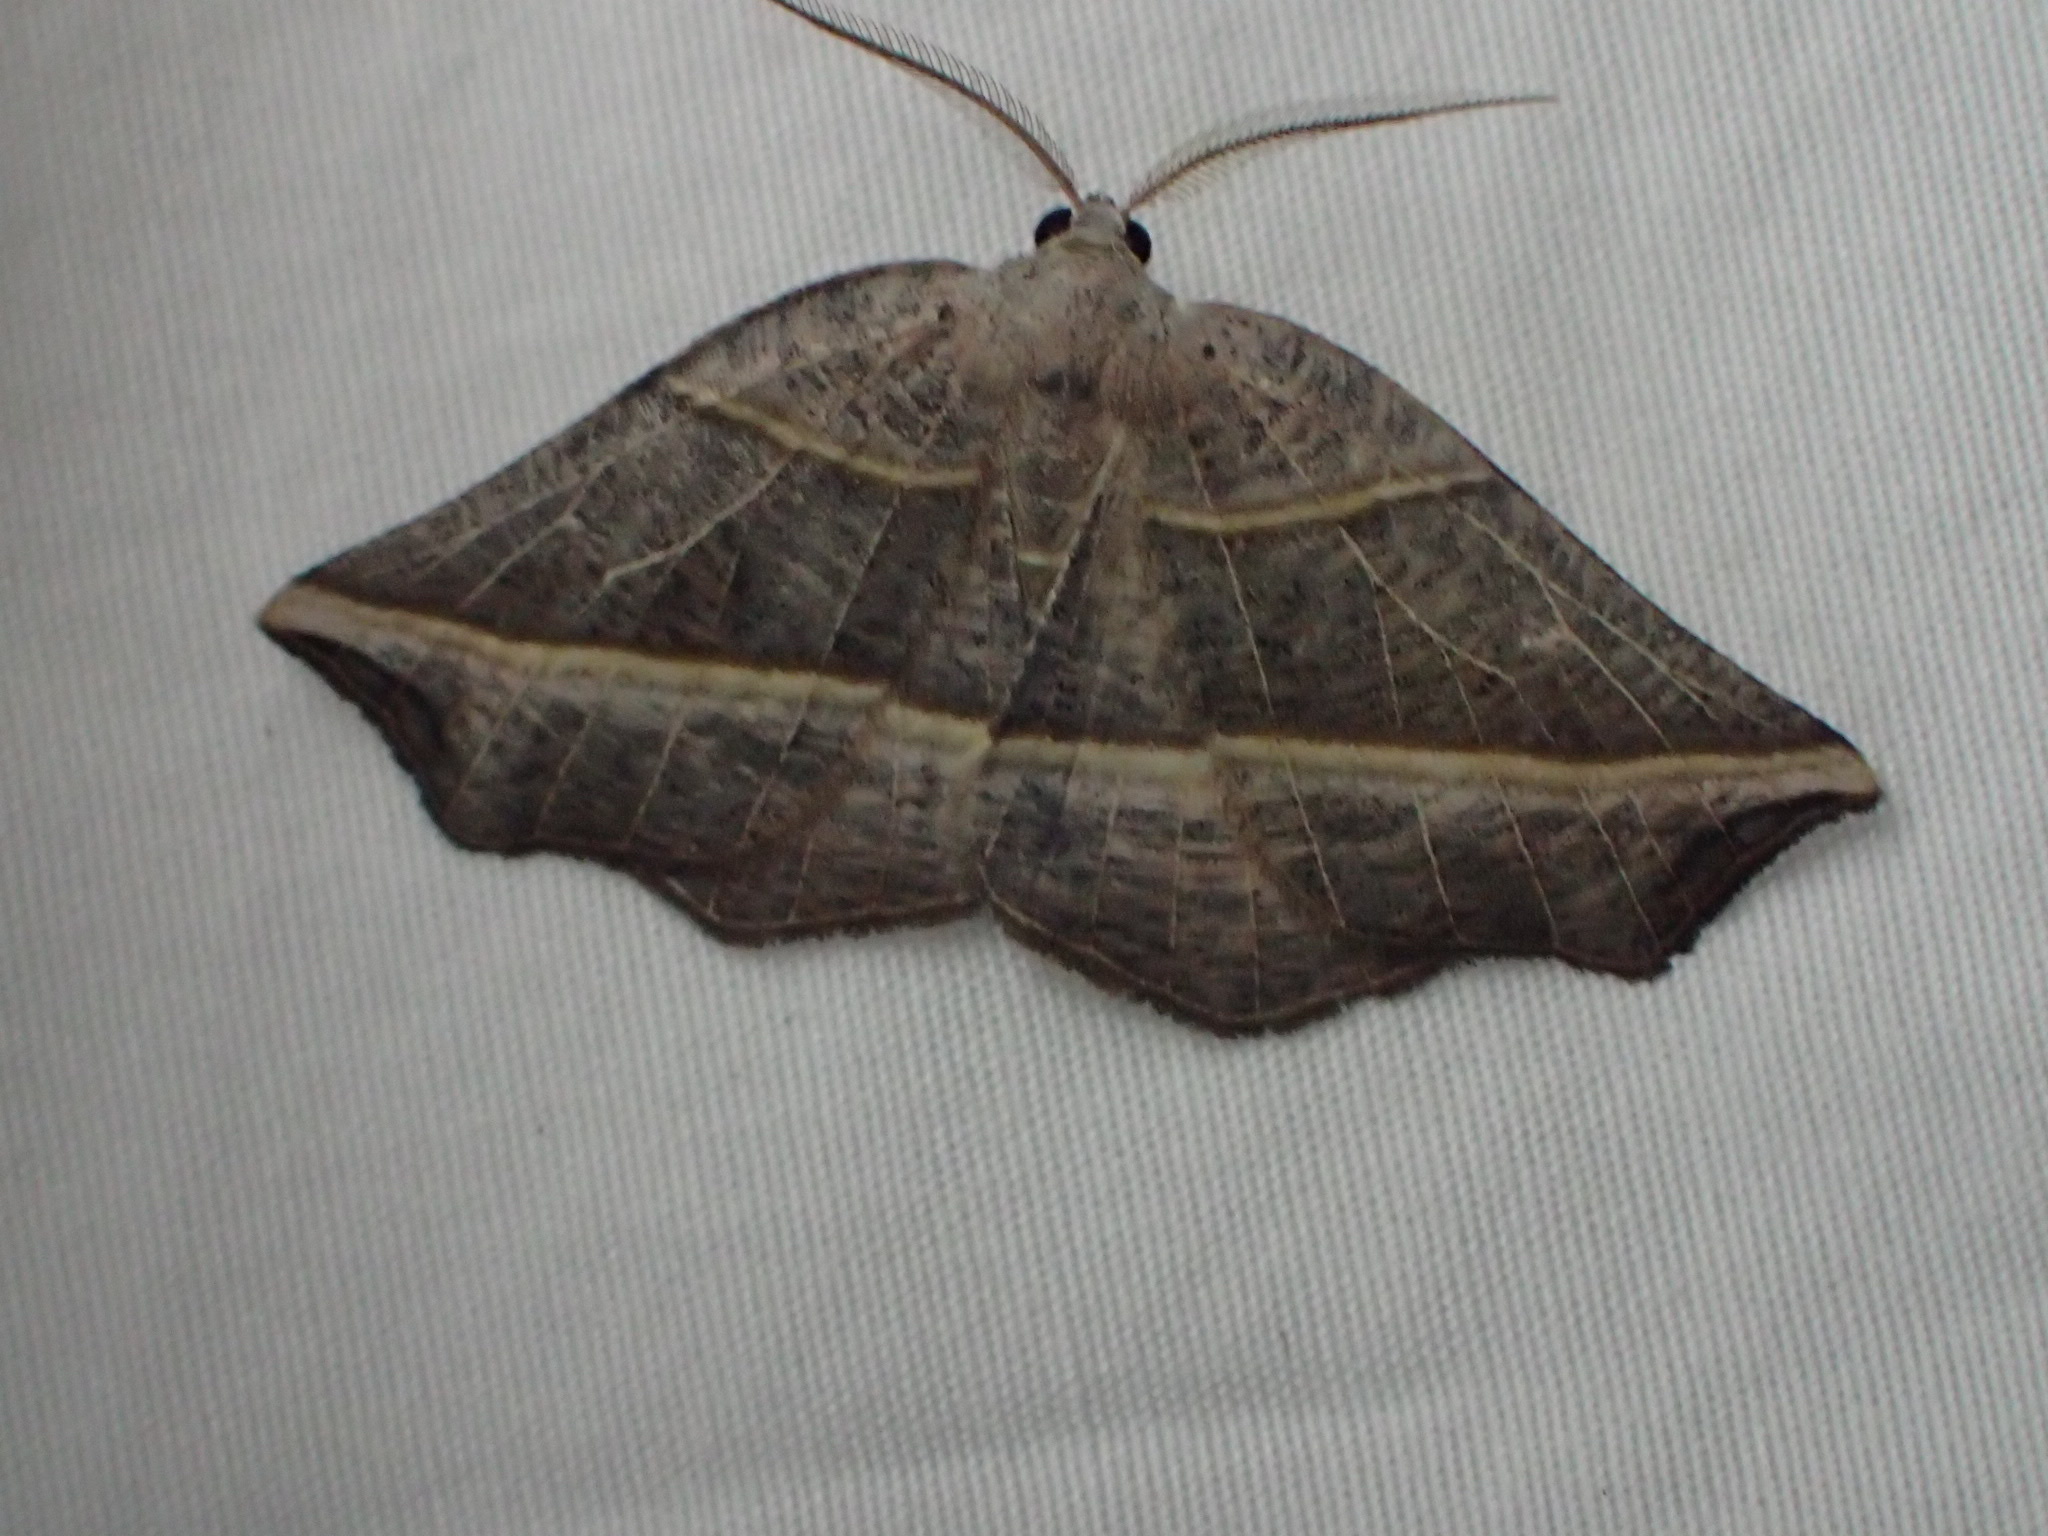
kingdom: Animalia
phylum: Arthropoda
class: Insecta
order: Lepidoptera
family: Geometridae
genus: Metanema
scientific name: Metanema determinata
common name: Dark metanema
